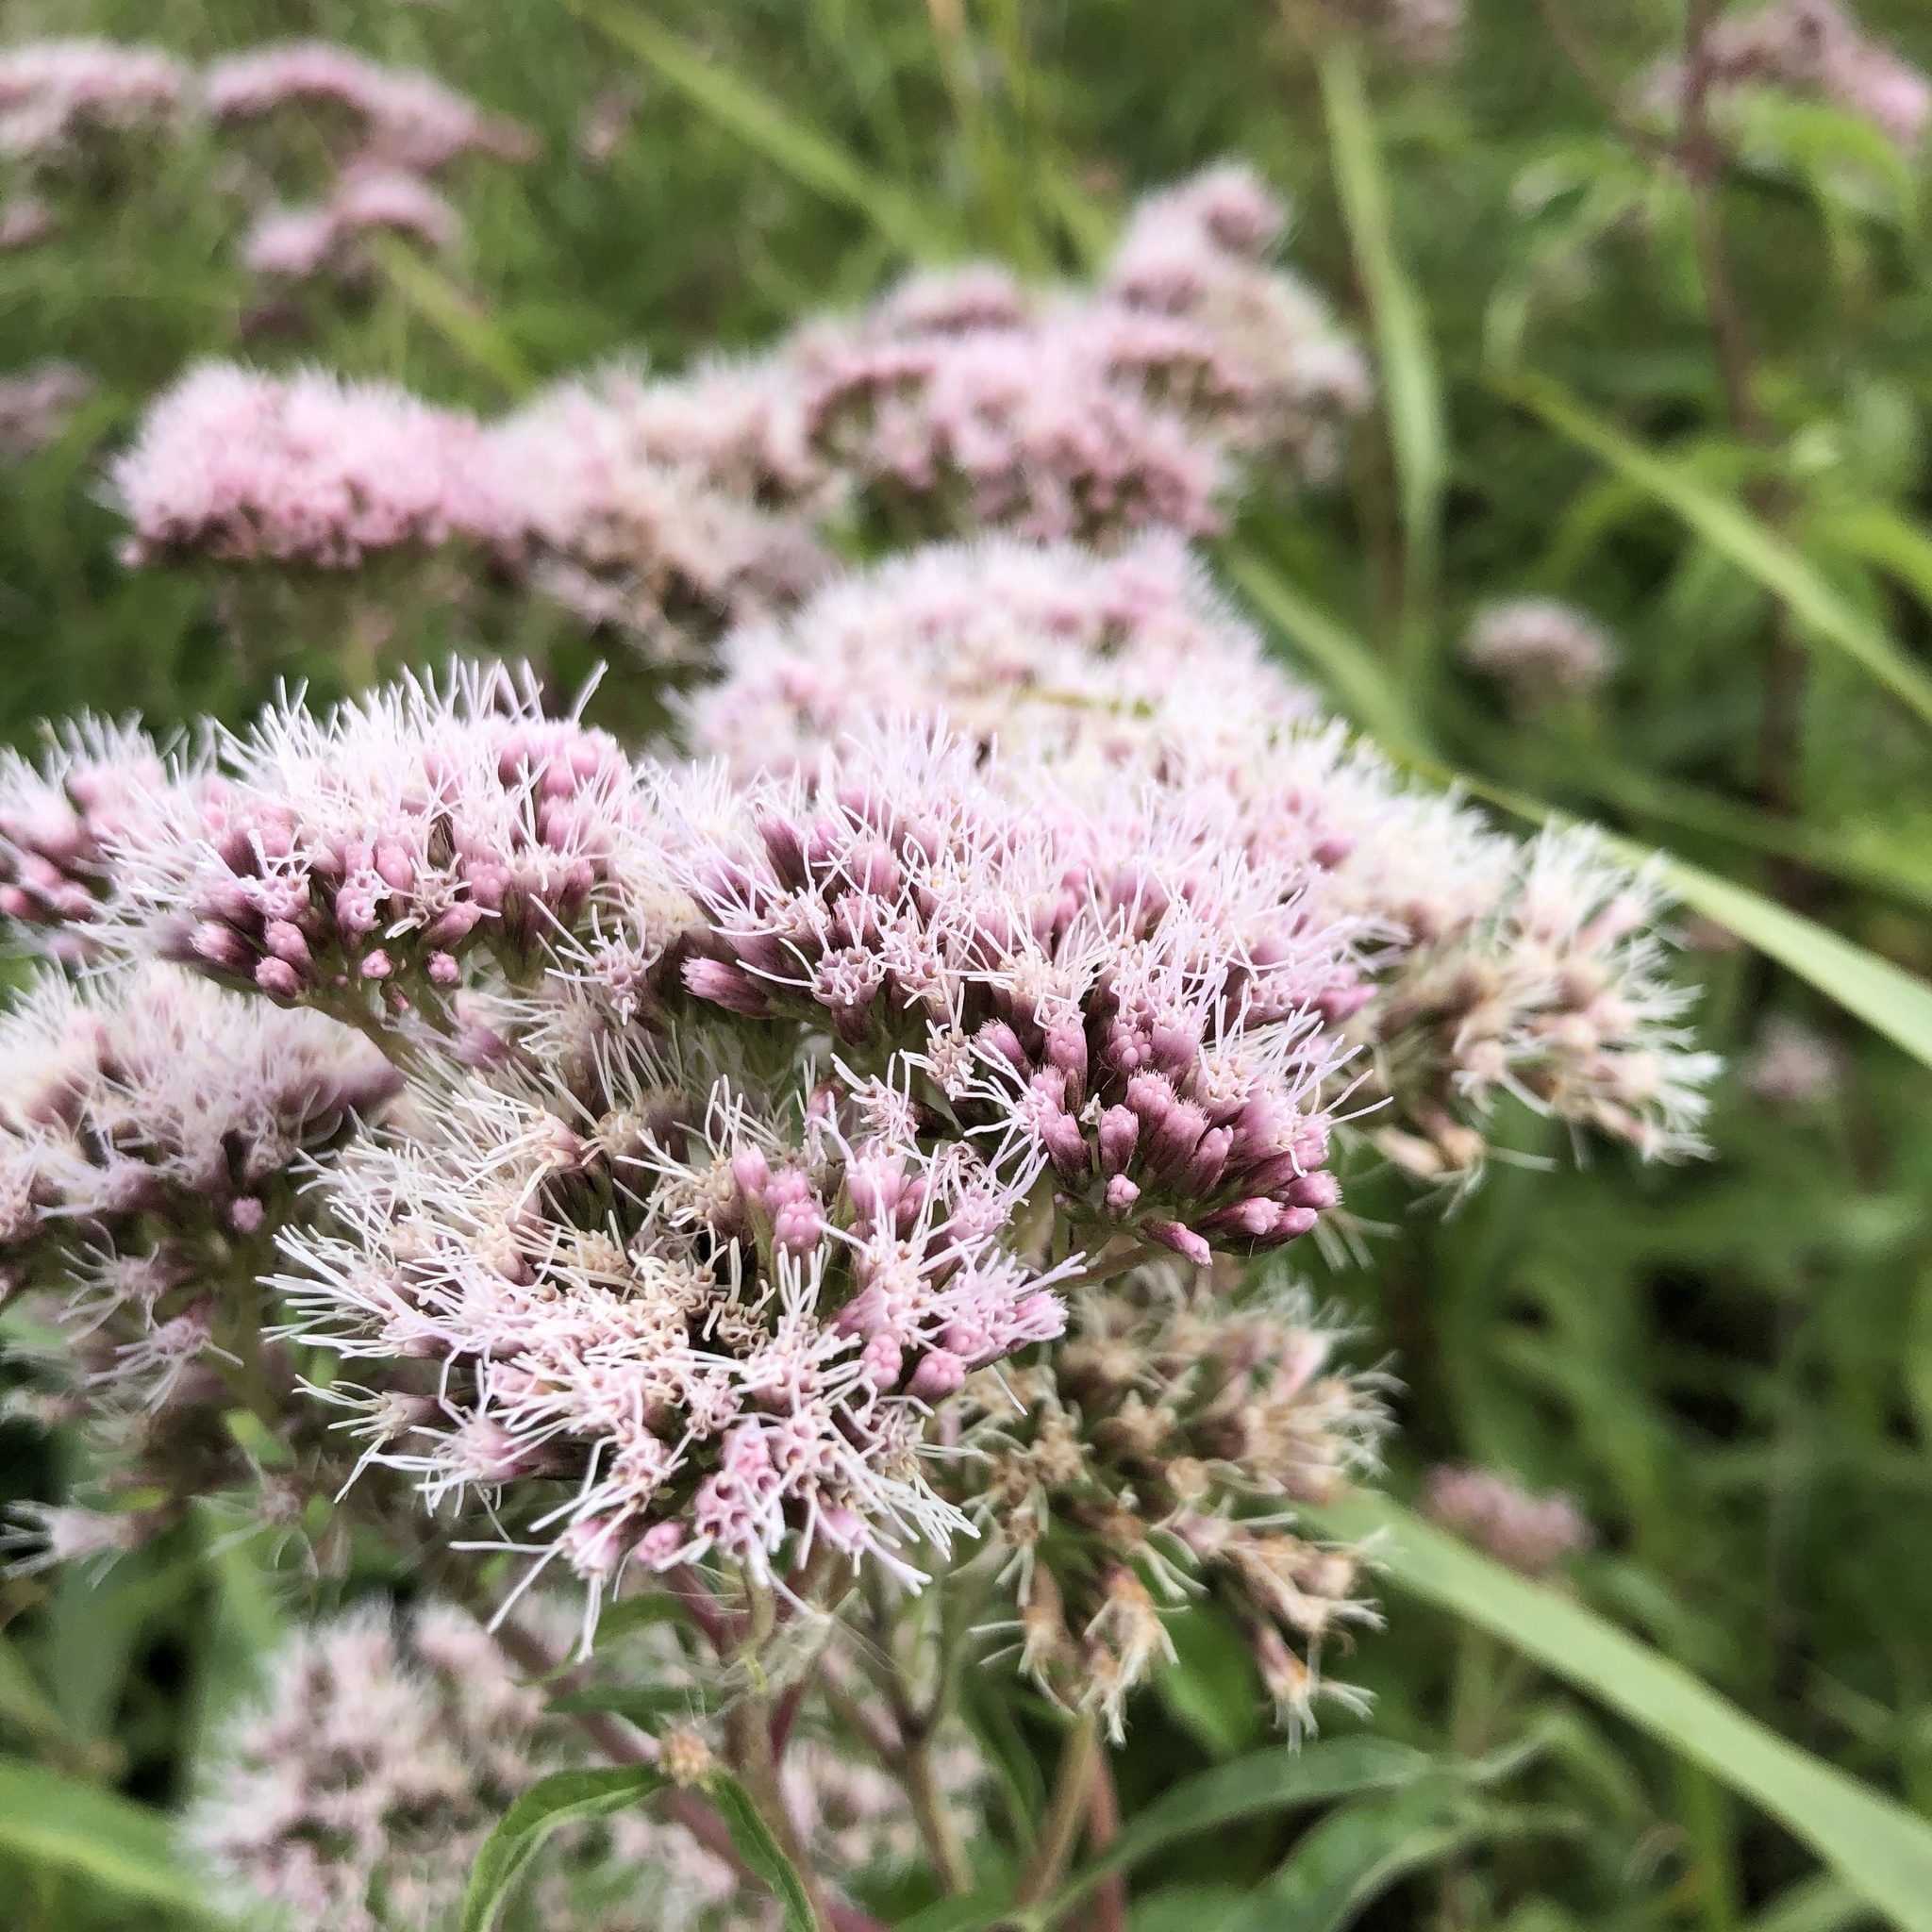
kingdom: Plantae
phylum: Tracheophyta
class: Magnoliopsida
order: Asterales
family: Asteraceae
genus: Eupatorium
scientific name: Eupatorium cannabinum
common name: Hemp-agrimony
